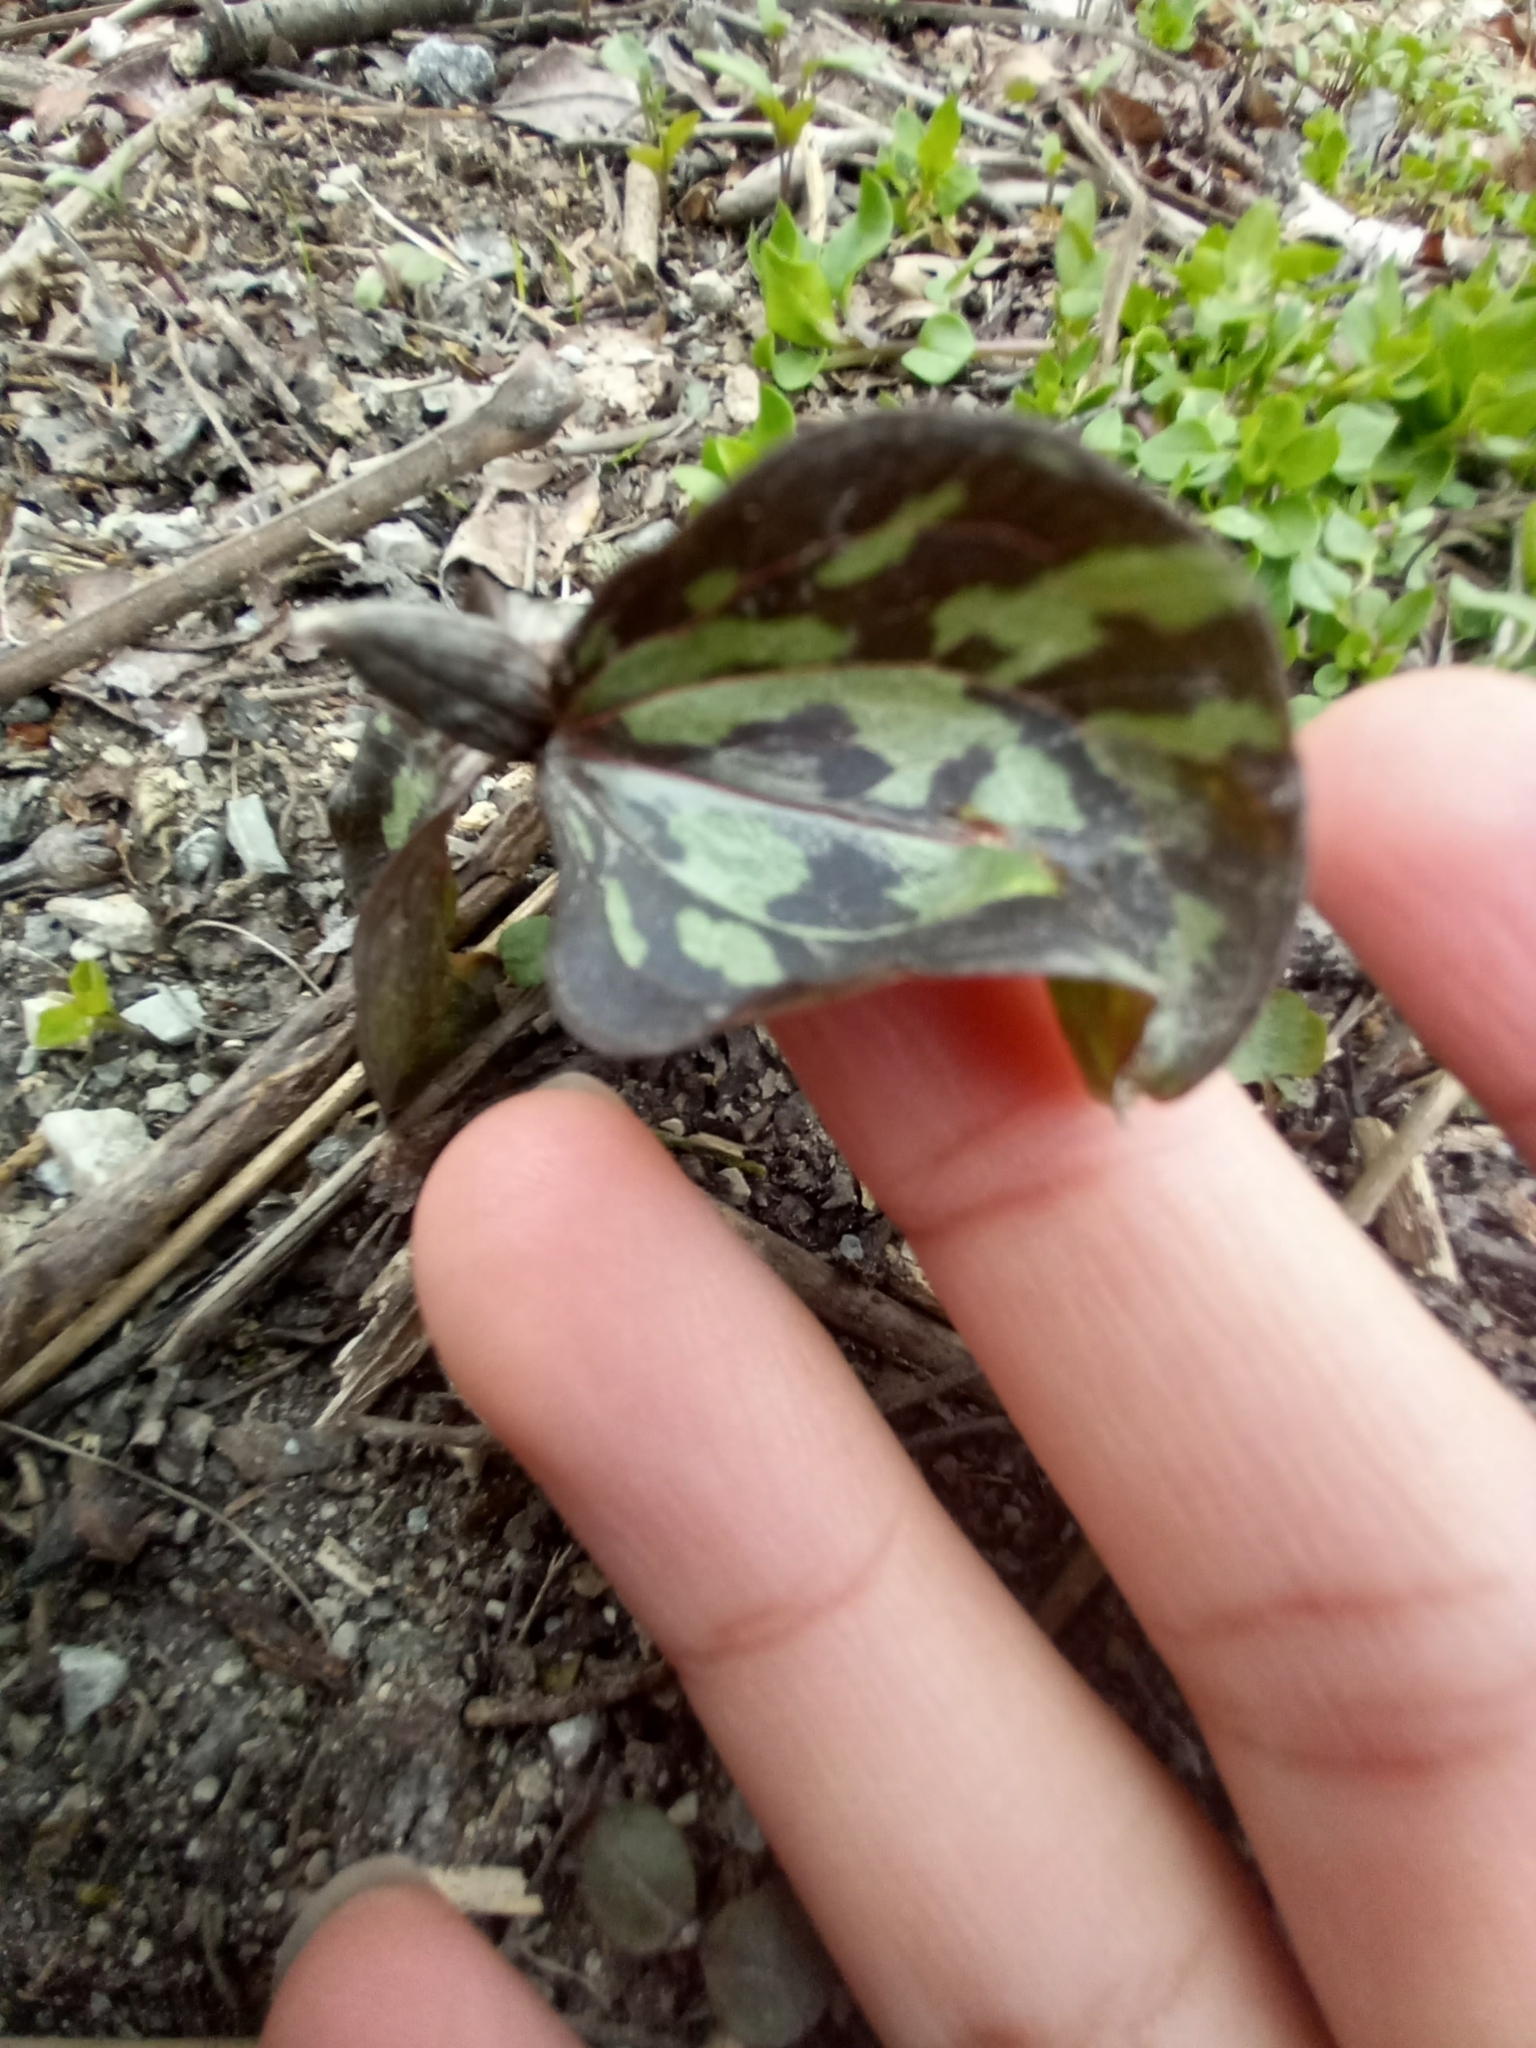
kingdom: Plantae
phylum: Tracheophyta
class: Liliopsida
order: Liliales
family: Melanthiaceae
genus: Trillium
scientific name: Trillium recurvatum
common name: Bloody butcher
